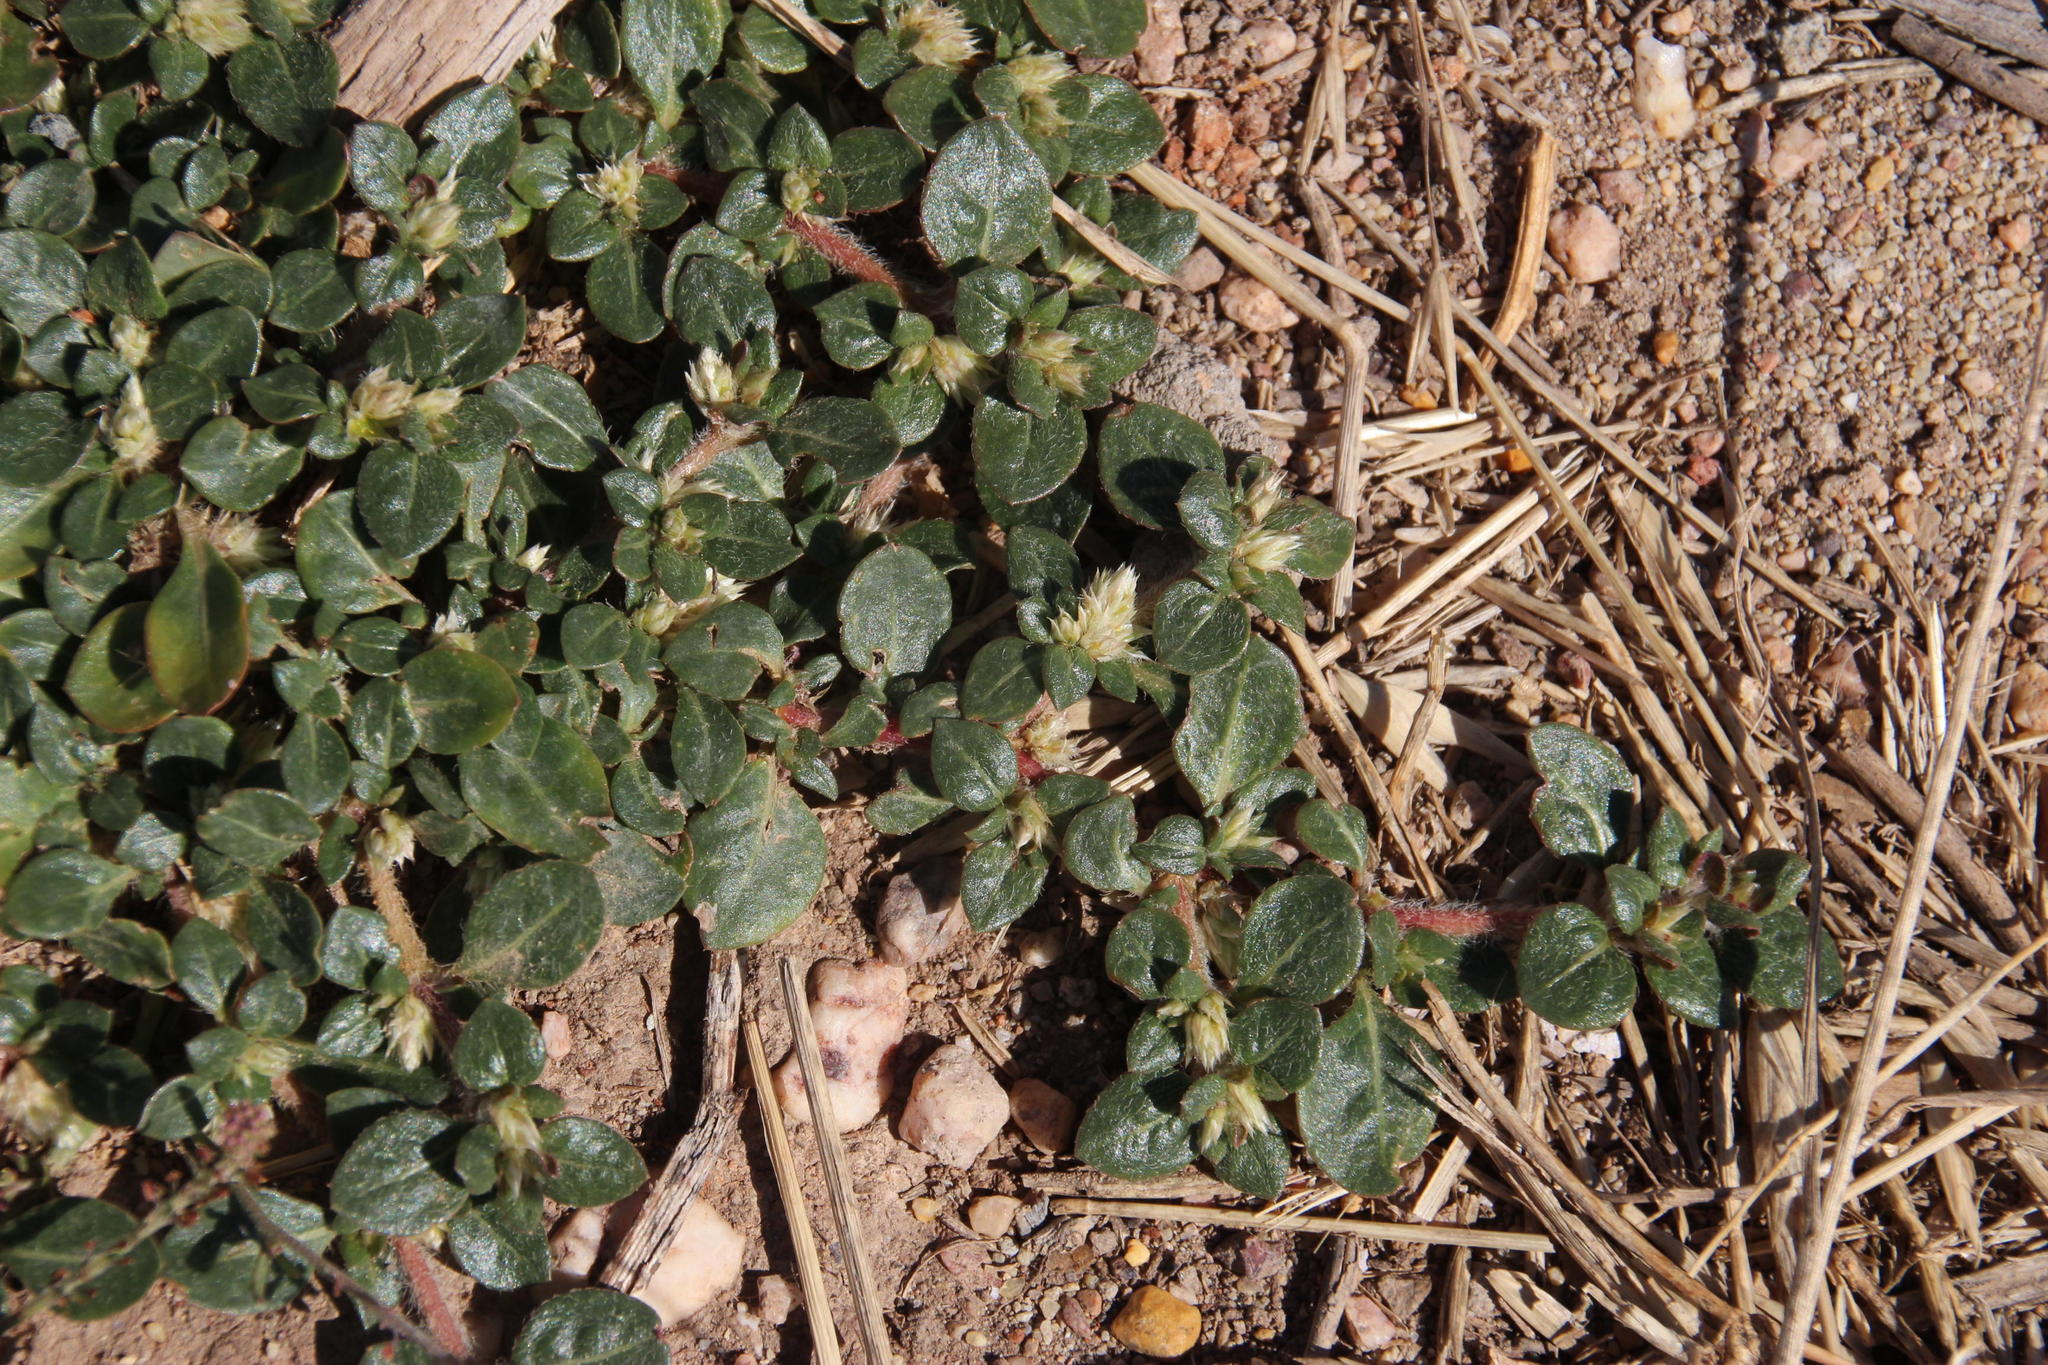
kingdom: Plantae
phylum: Tracheophyta
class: Magnoliopsida
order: Caryophyllales
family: Amaranthaceae
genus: Alternanthera
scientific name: Alternanthera pungens
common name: Khakiweed
